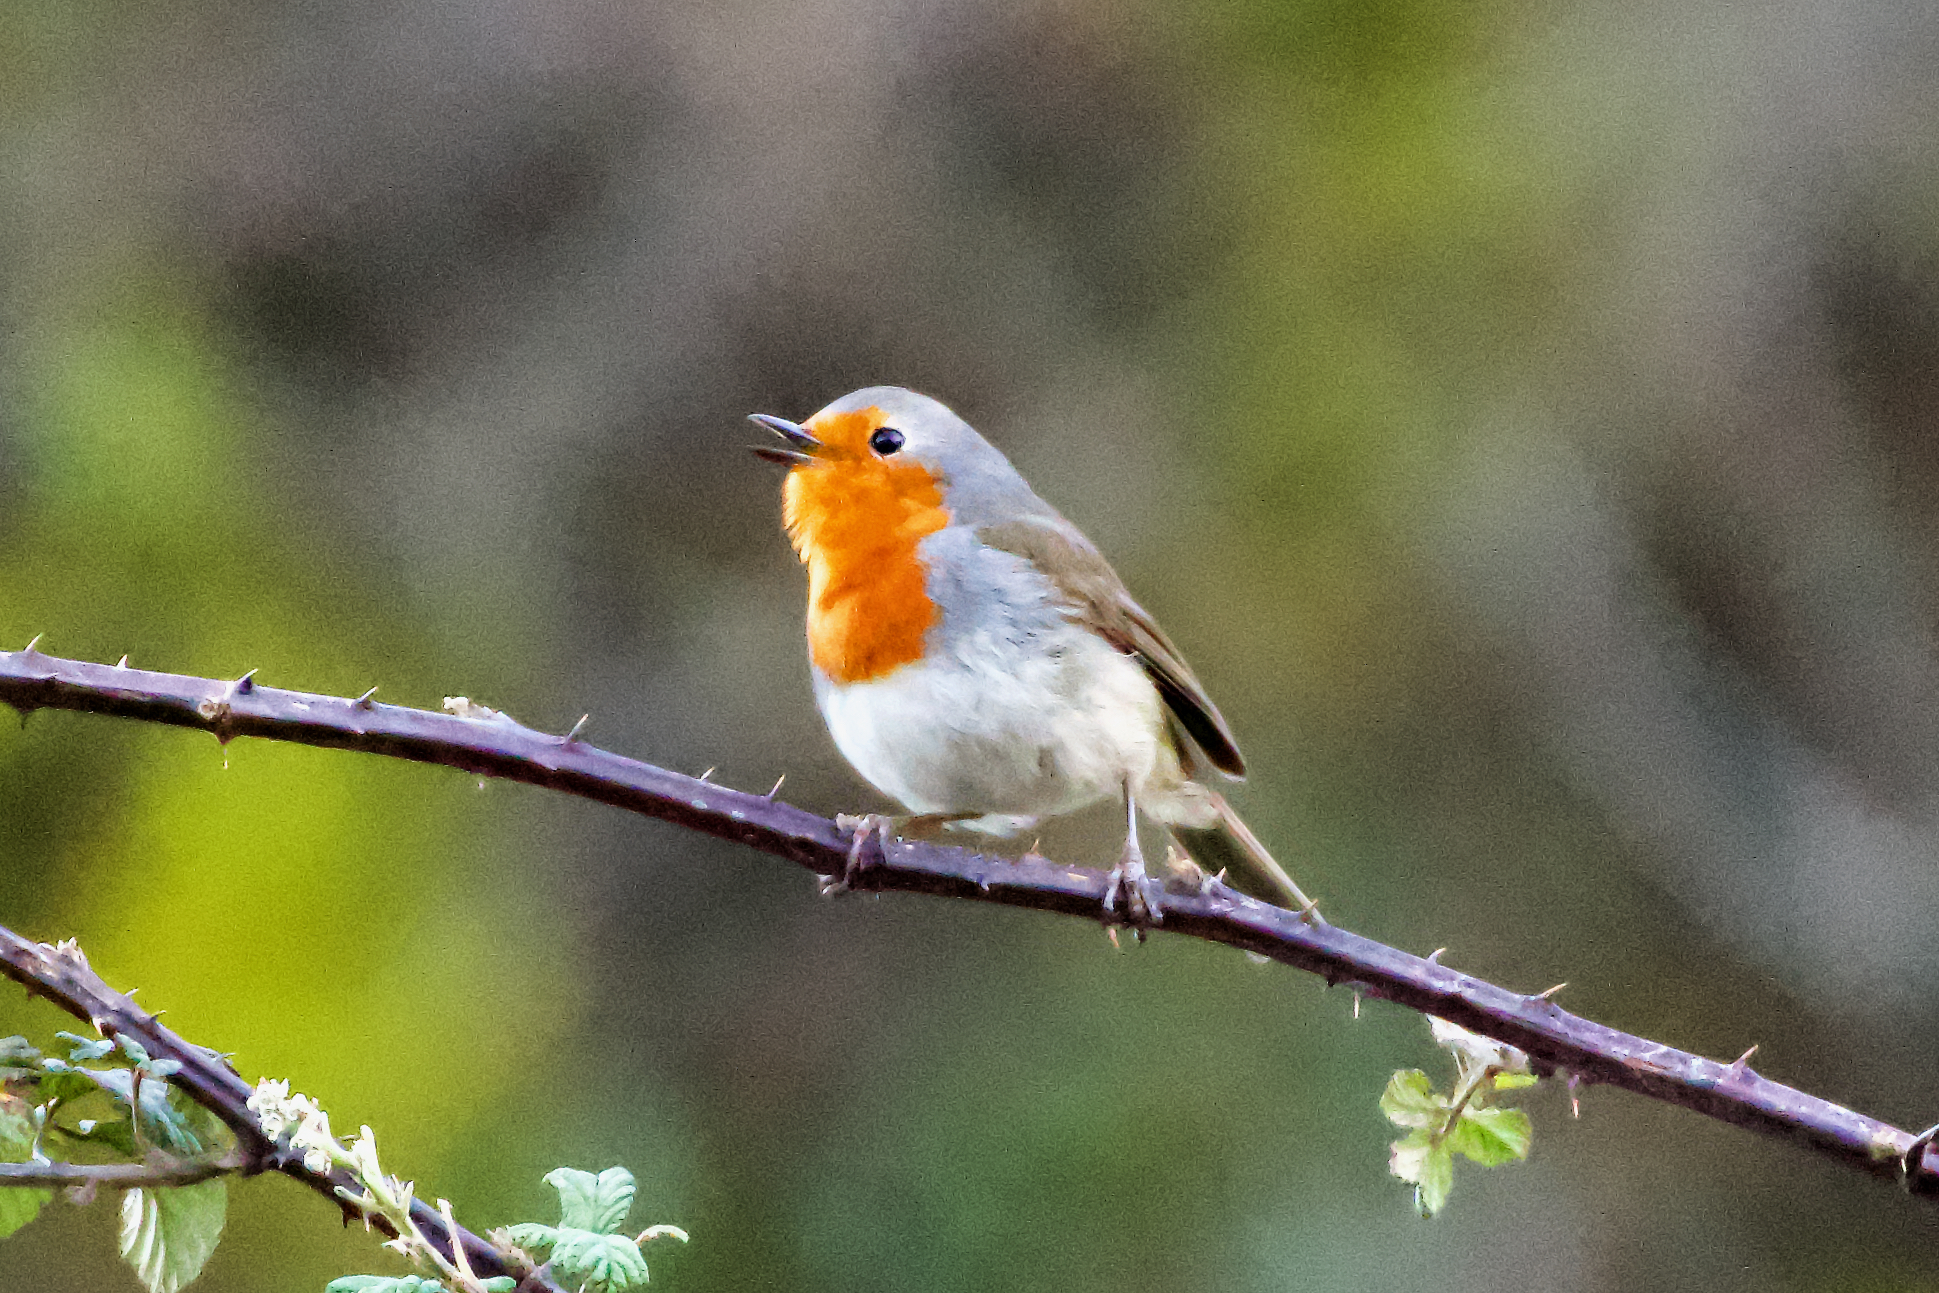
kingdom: Animalia
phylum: Chordata
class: Aves
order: Passeriformes
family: Muscicapidae
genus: Erithacus
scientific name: Erithacus rubecula
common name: European robin
